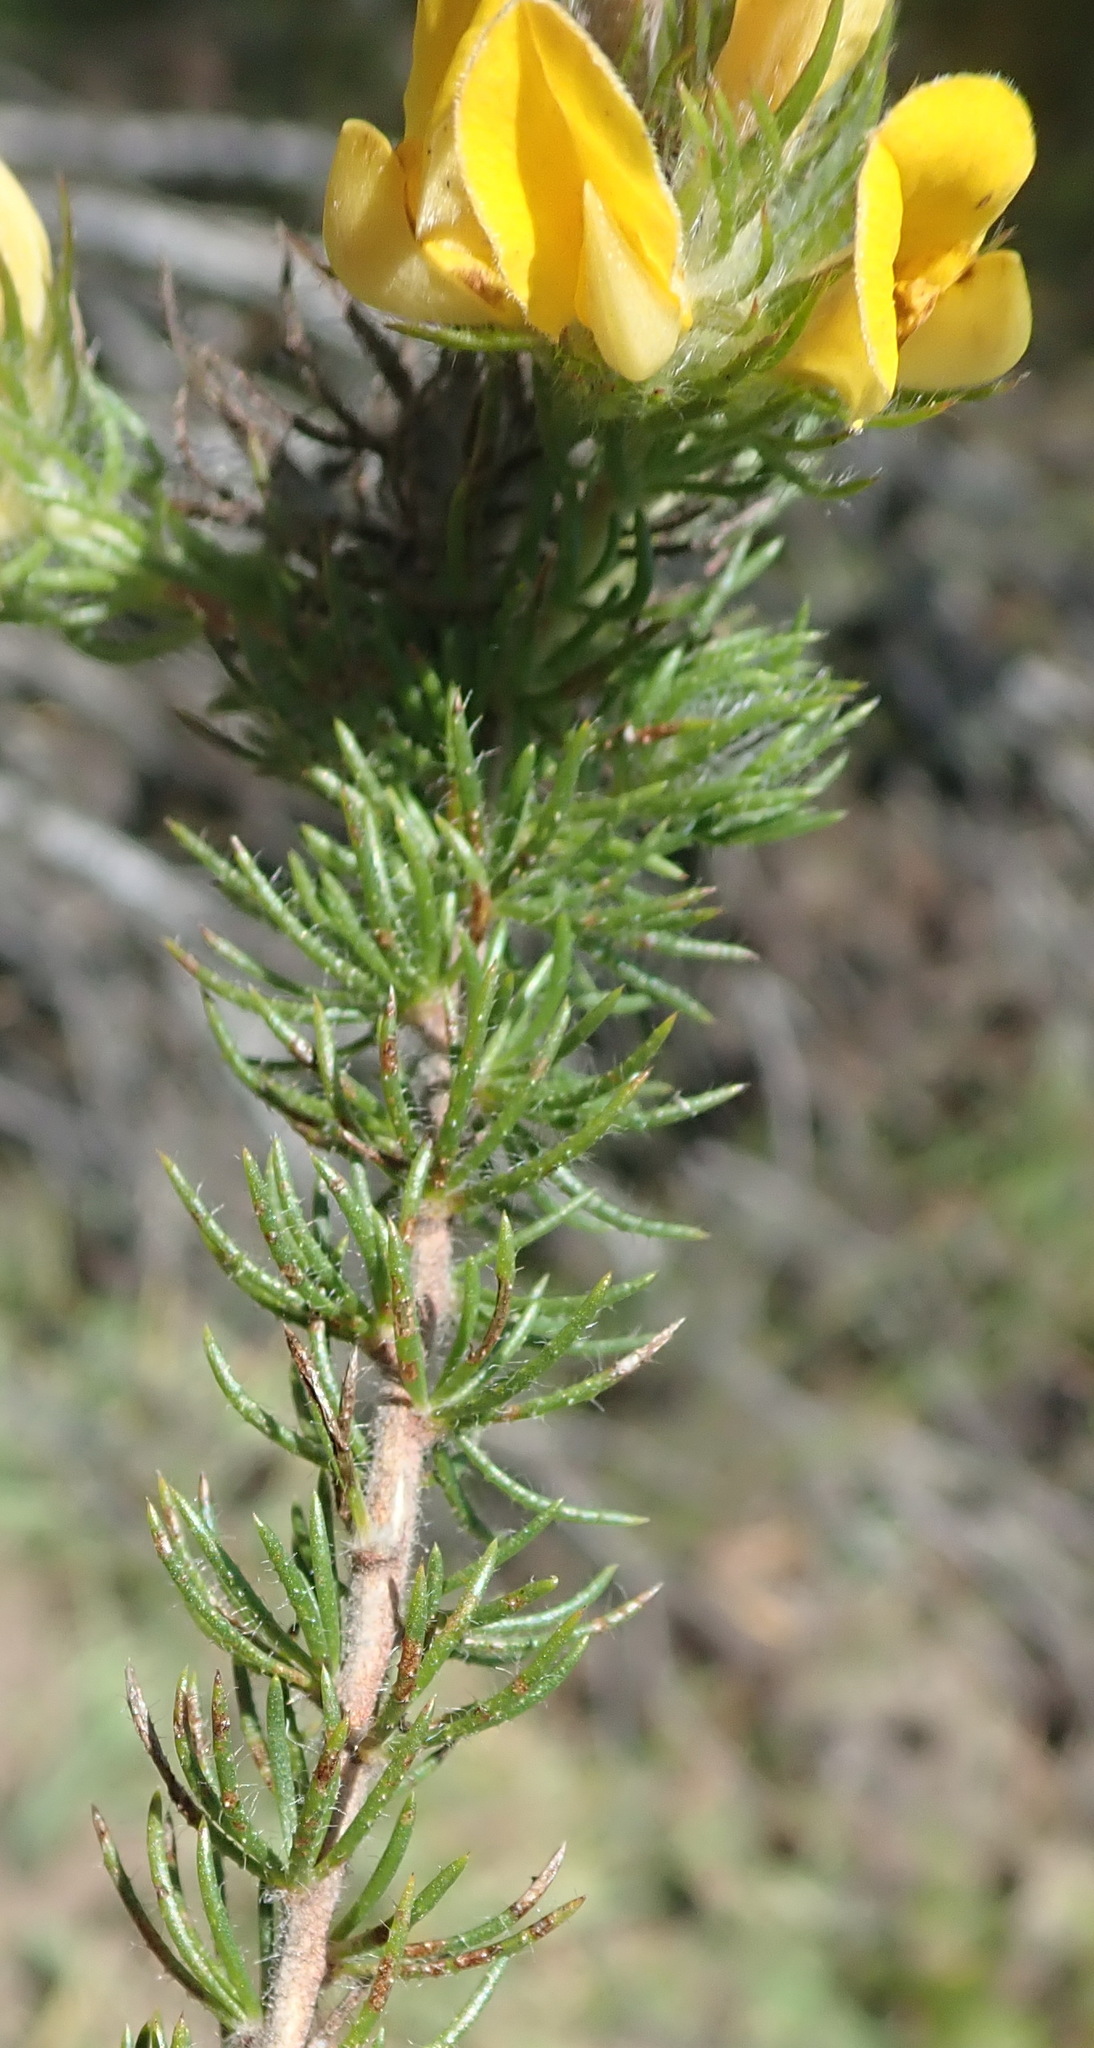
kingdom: Plantae
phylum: Tracheophyta
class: Magnoliopsida
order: Fabales
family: Fabaceae
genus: Aspalathus
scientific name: Aspalathus asparagoides
